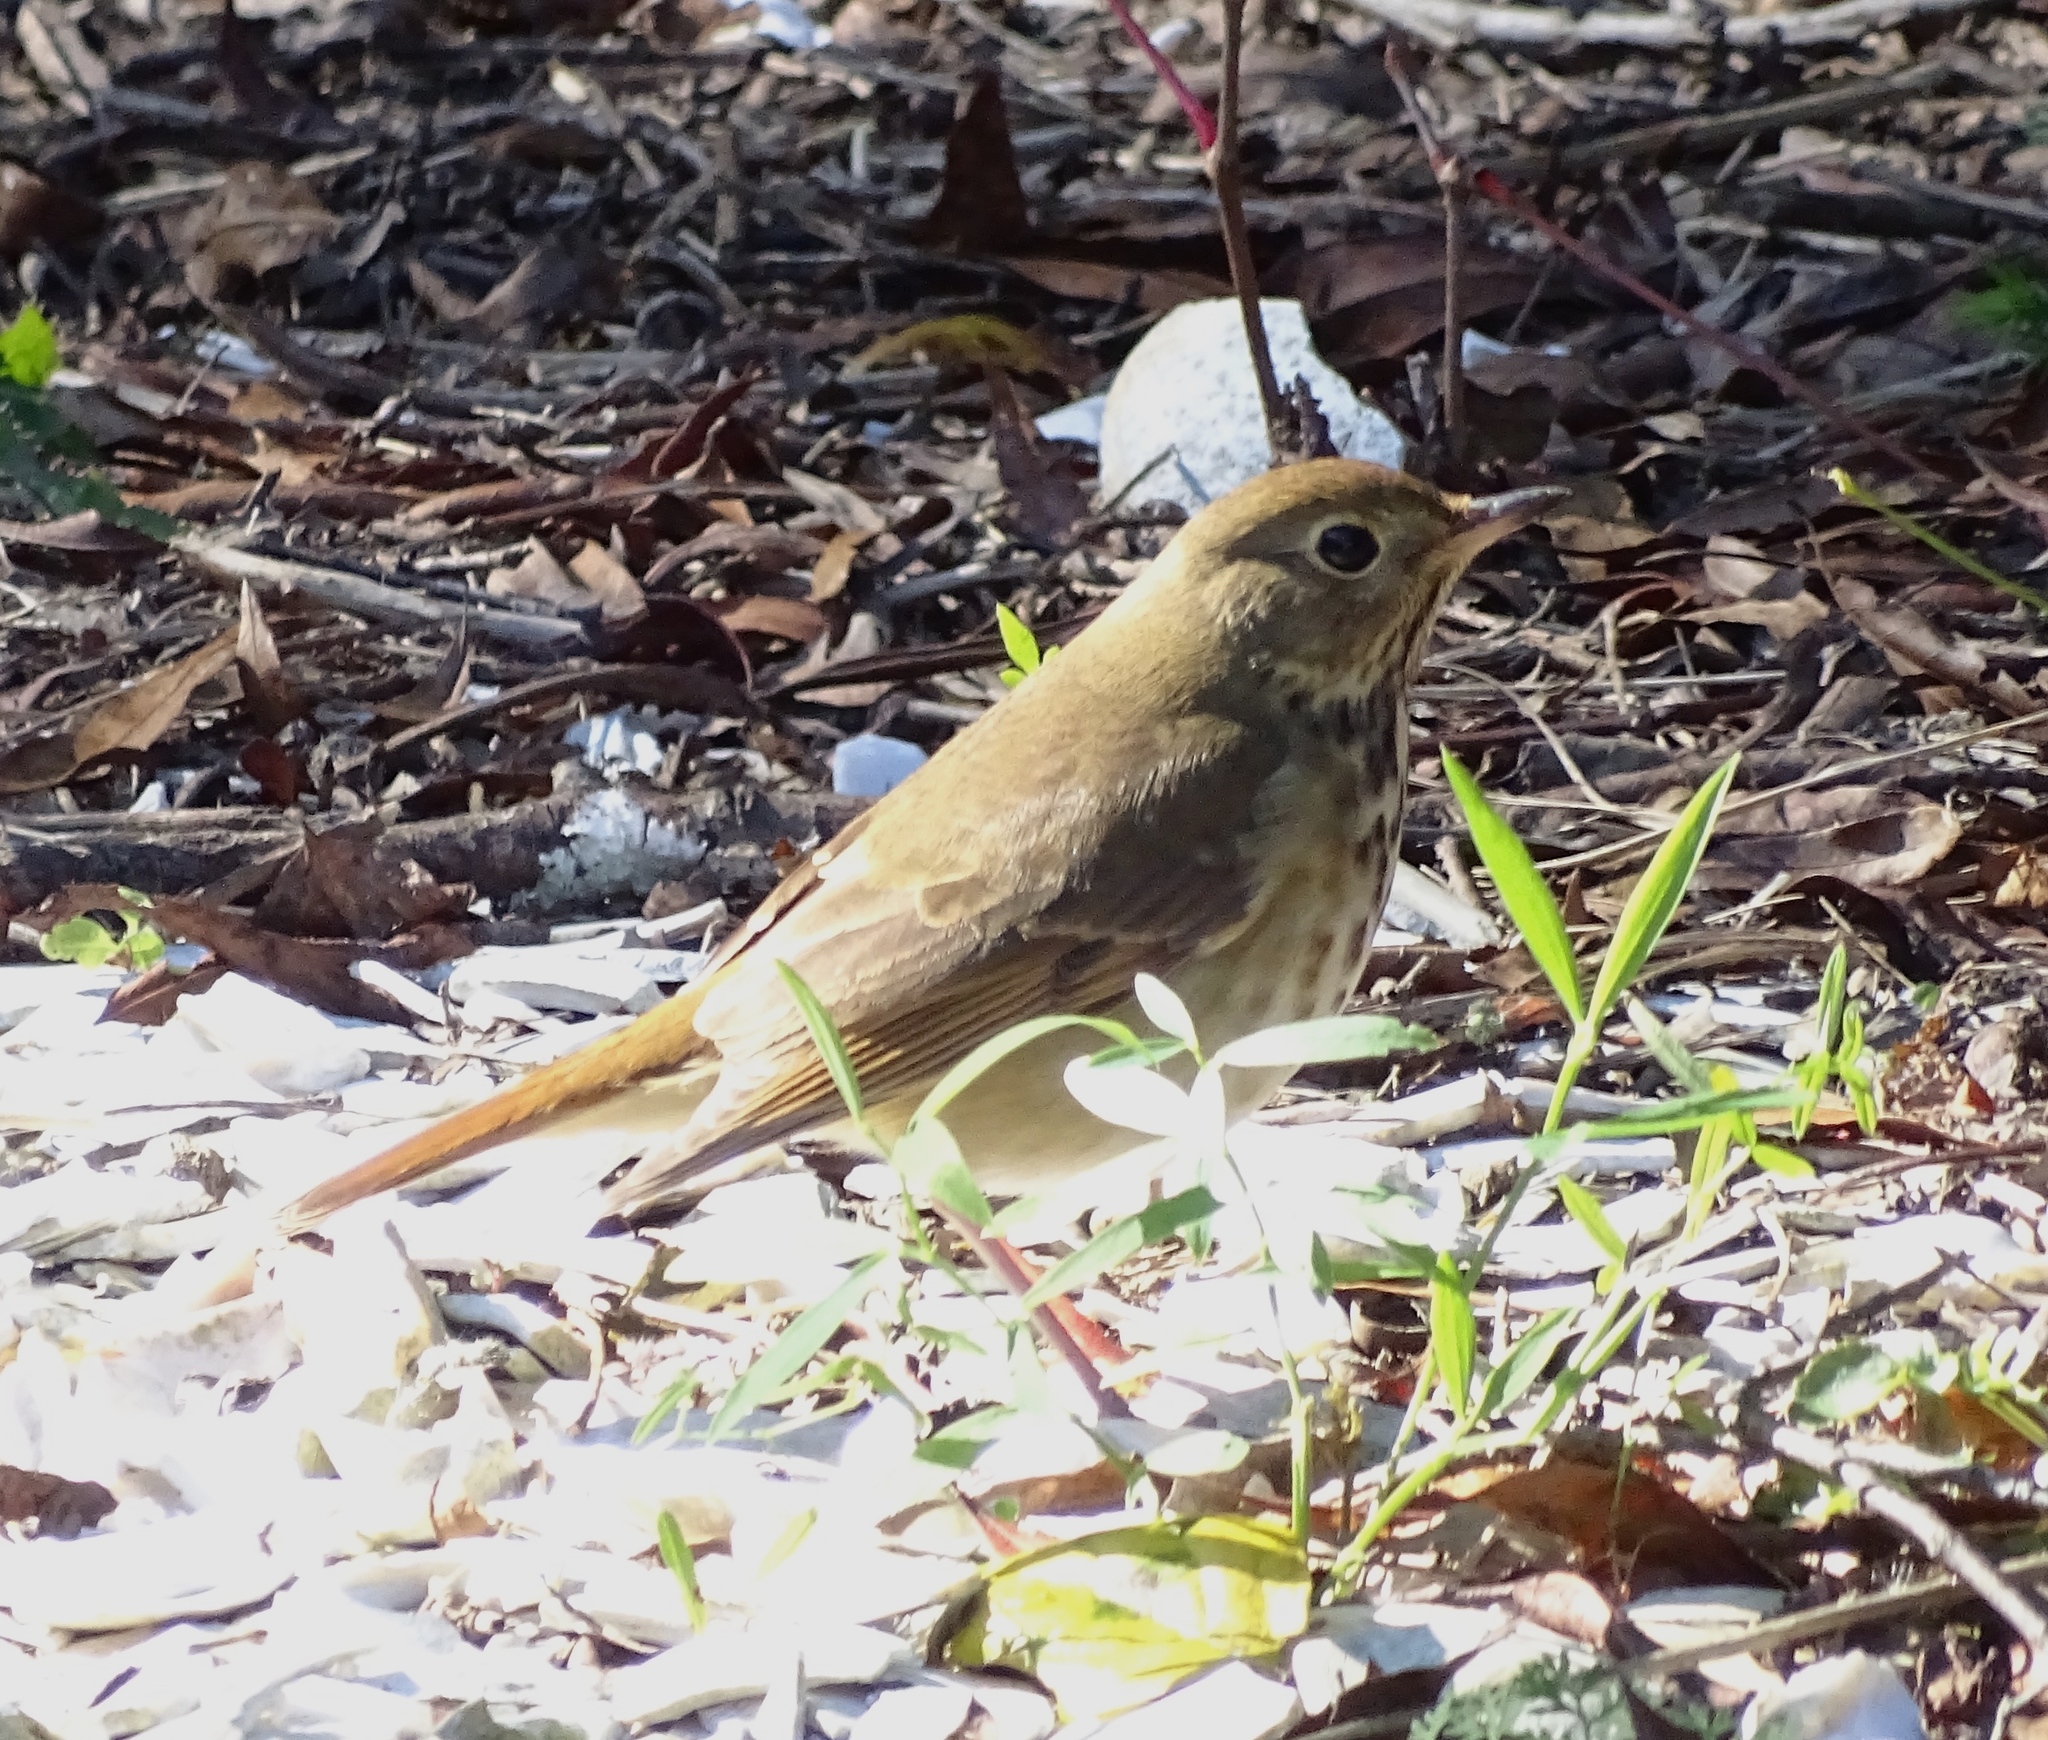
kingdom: Animalia
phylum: Chordata
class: Aves
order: Passeriformes
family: Turdidae
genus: Catharus
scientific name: Catharus guttatus
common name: Hermit thrush
